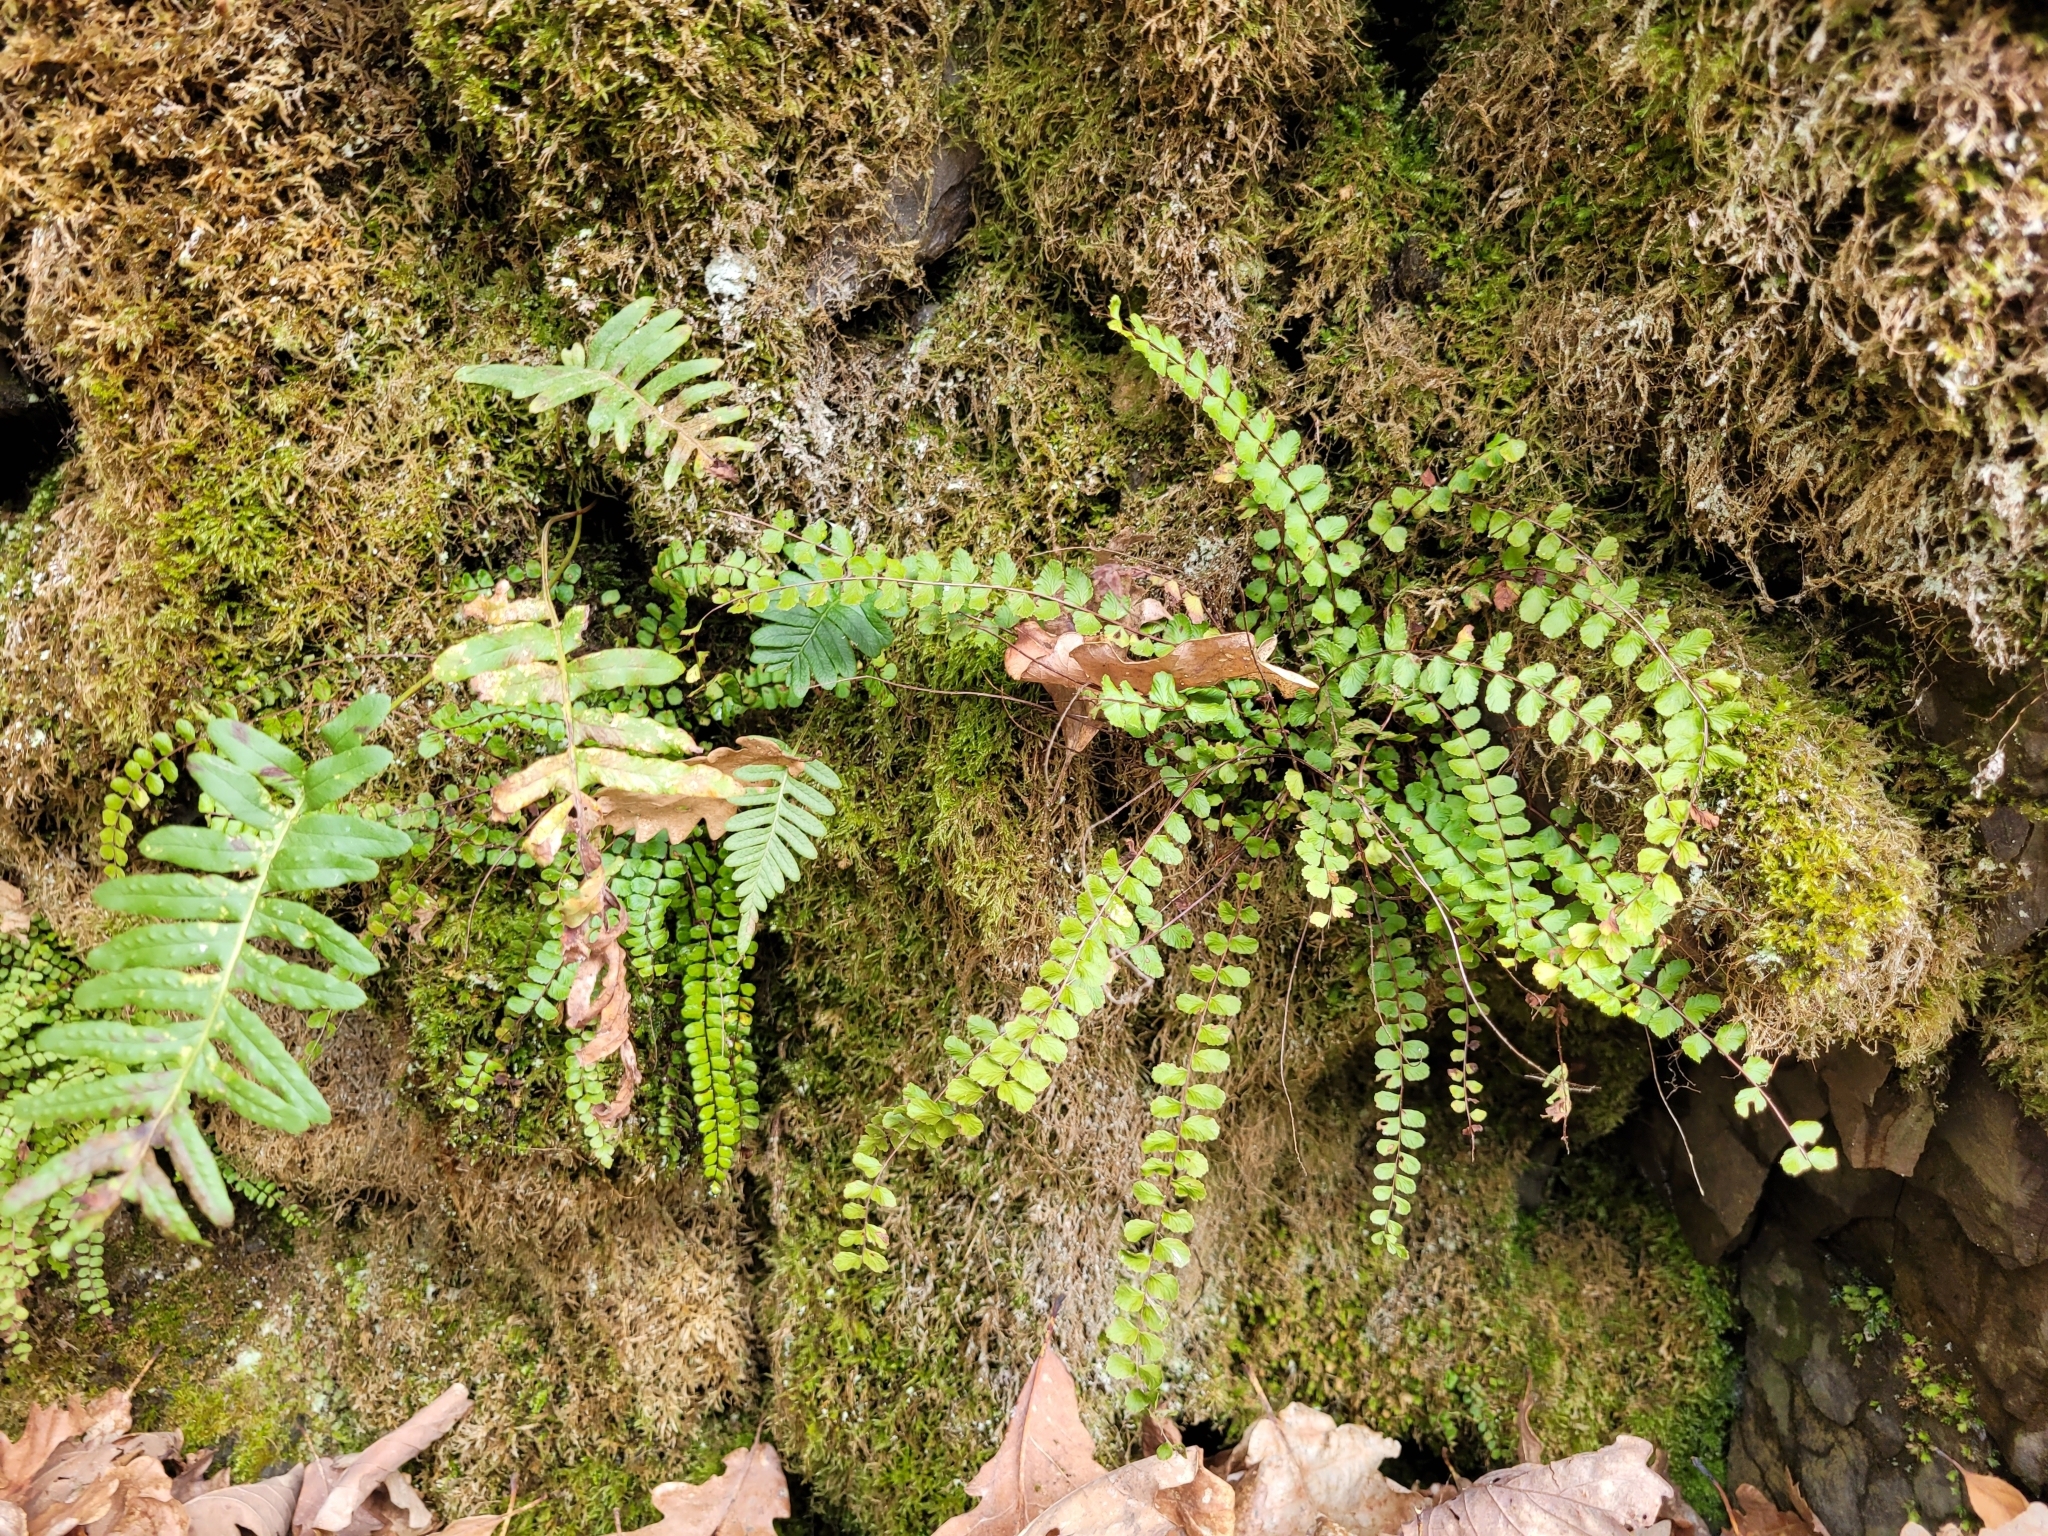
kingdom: Plantae
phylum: Tracheophyta
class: Polypodiopsida
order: Polypodiales
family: Aspleniaceae
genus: Asplenium
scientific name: Asplenium trichomanes
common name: Maidenhair spleenwort
